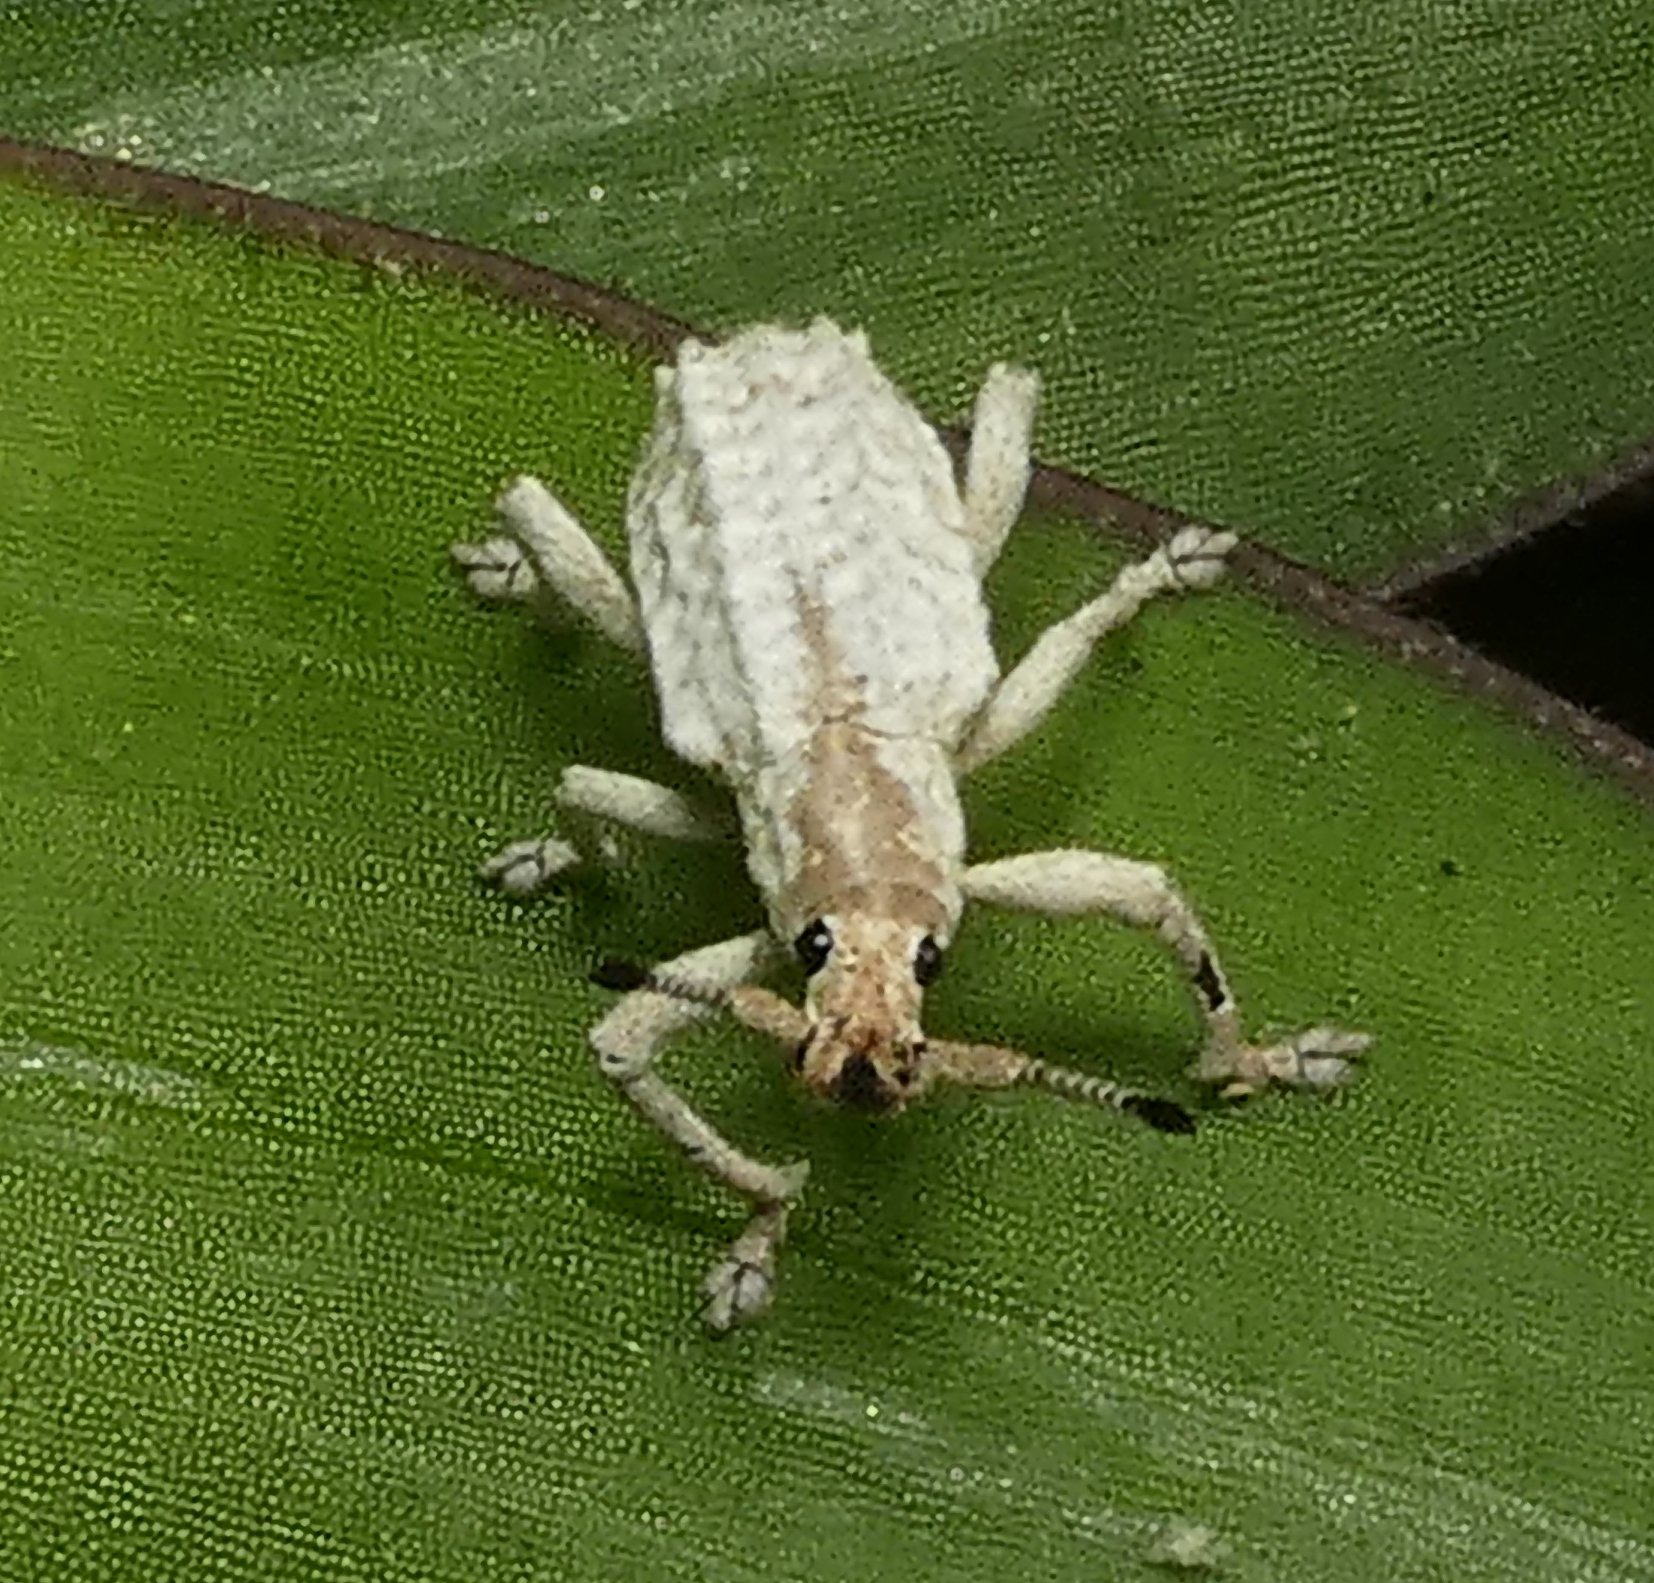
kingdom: Animalia
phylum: Arthropoda
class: Insecta
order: Coleoptera
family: Curculionidae
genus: Compsus
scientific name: Compsus niveus
